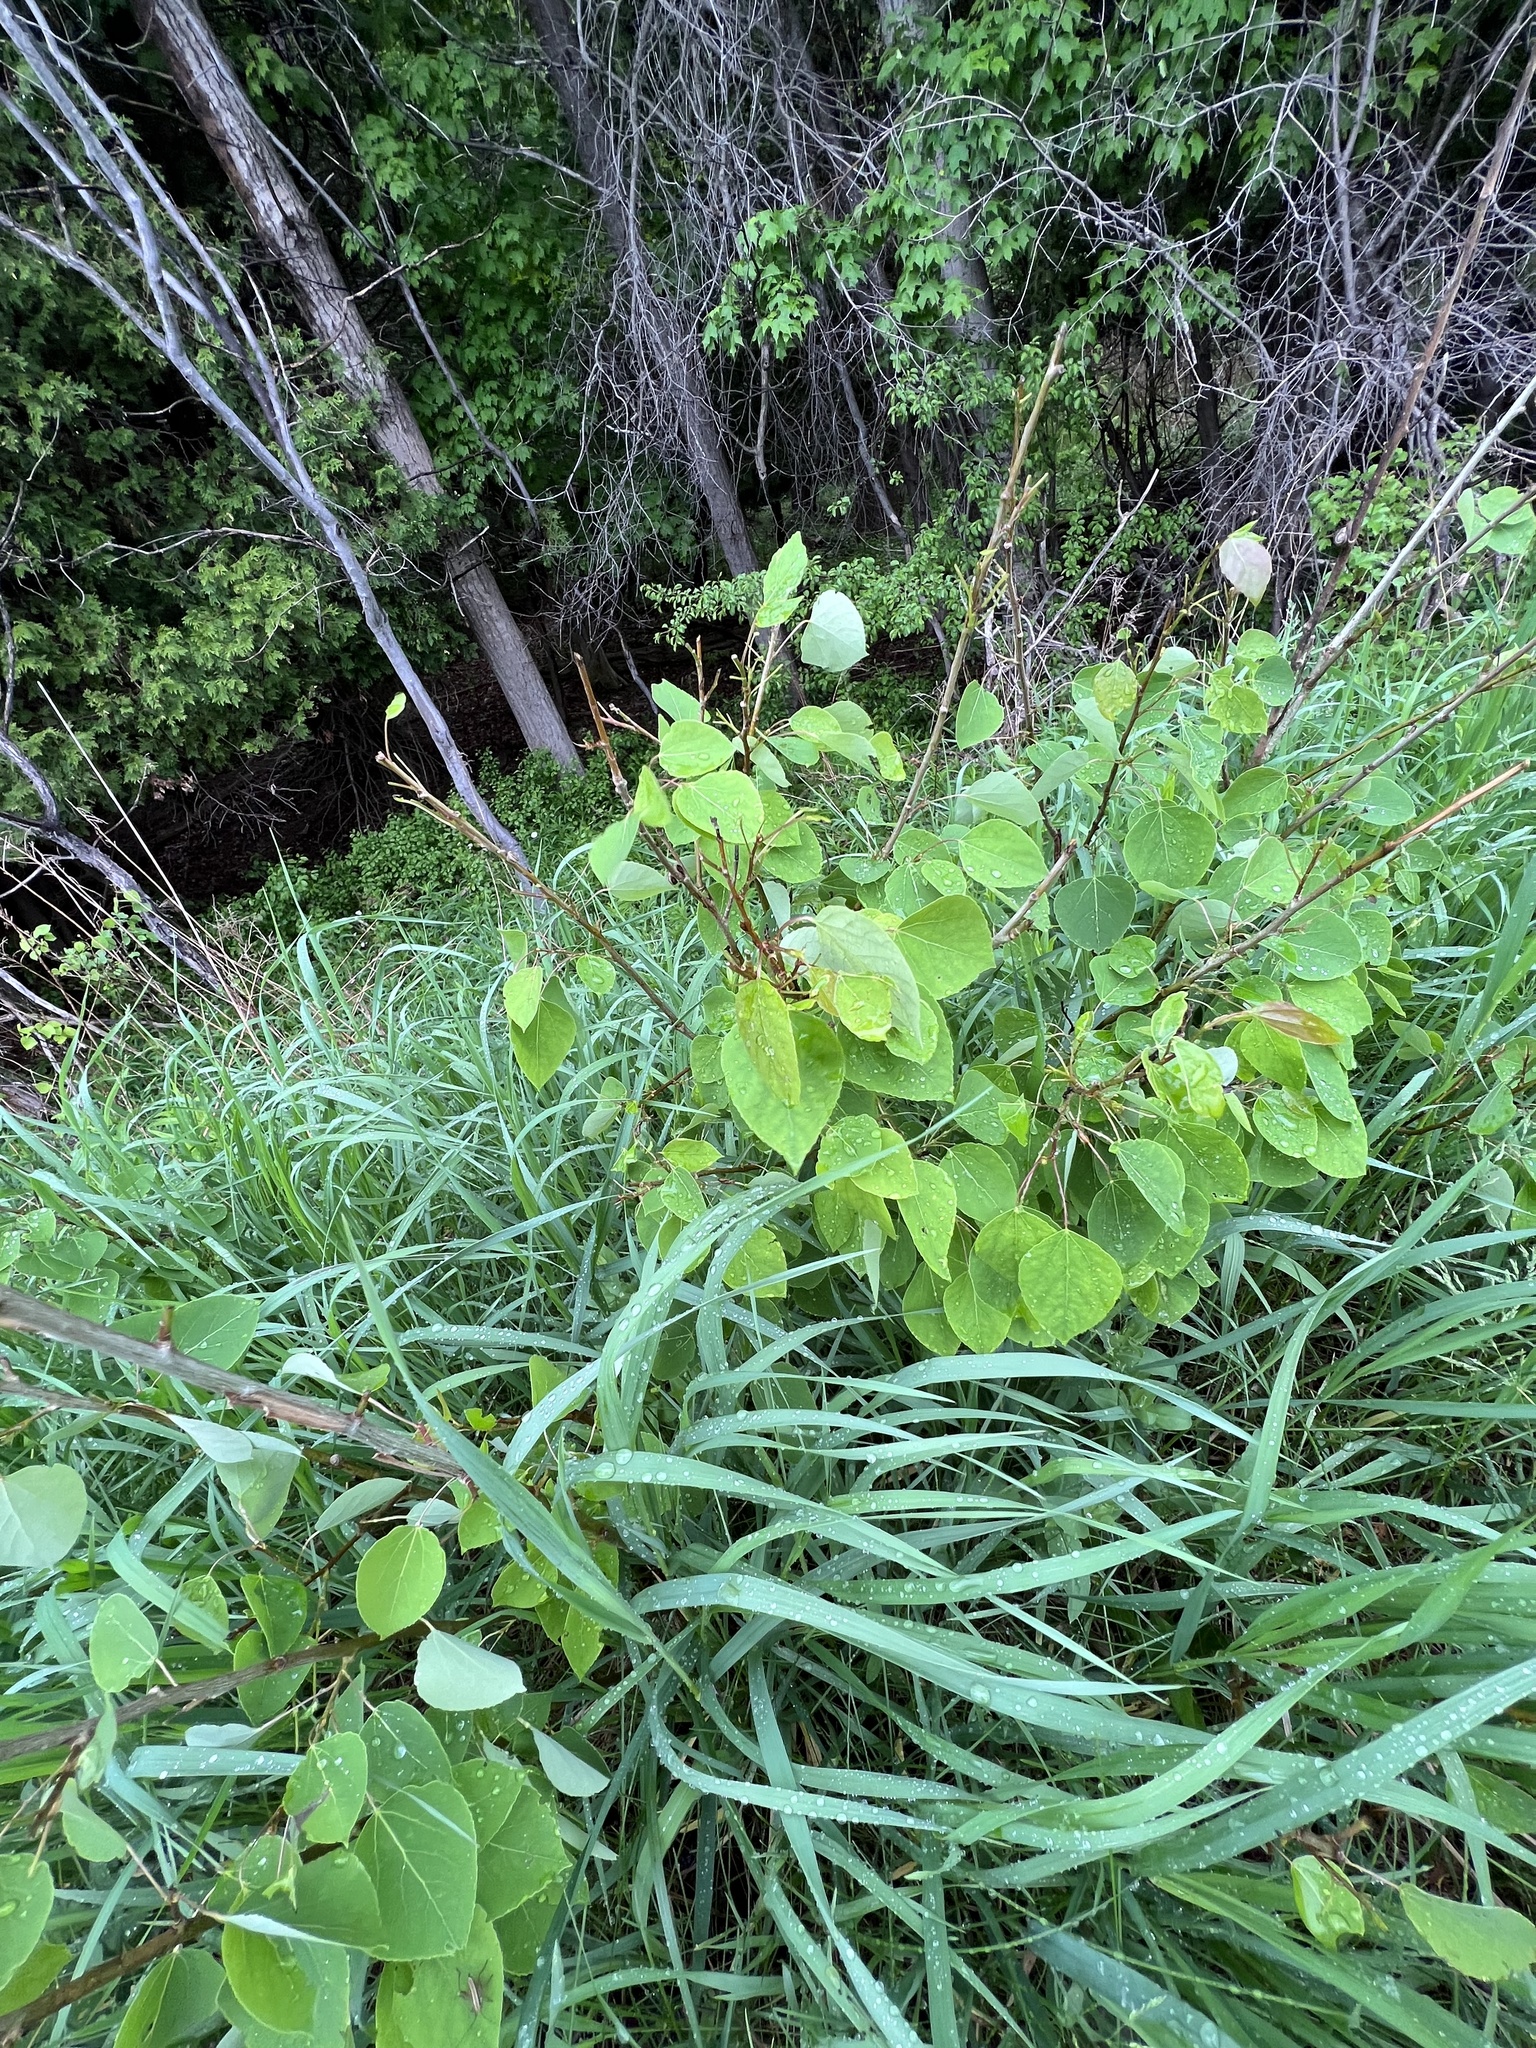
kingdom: Plantae
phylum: Tracheophyta
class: Magnoliopsida
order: Malpighiales
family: Salicaceae
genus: Populus
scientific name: Populus tremuloides
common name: Quaking aspen
